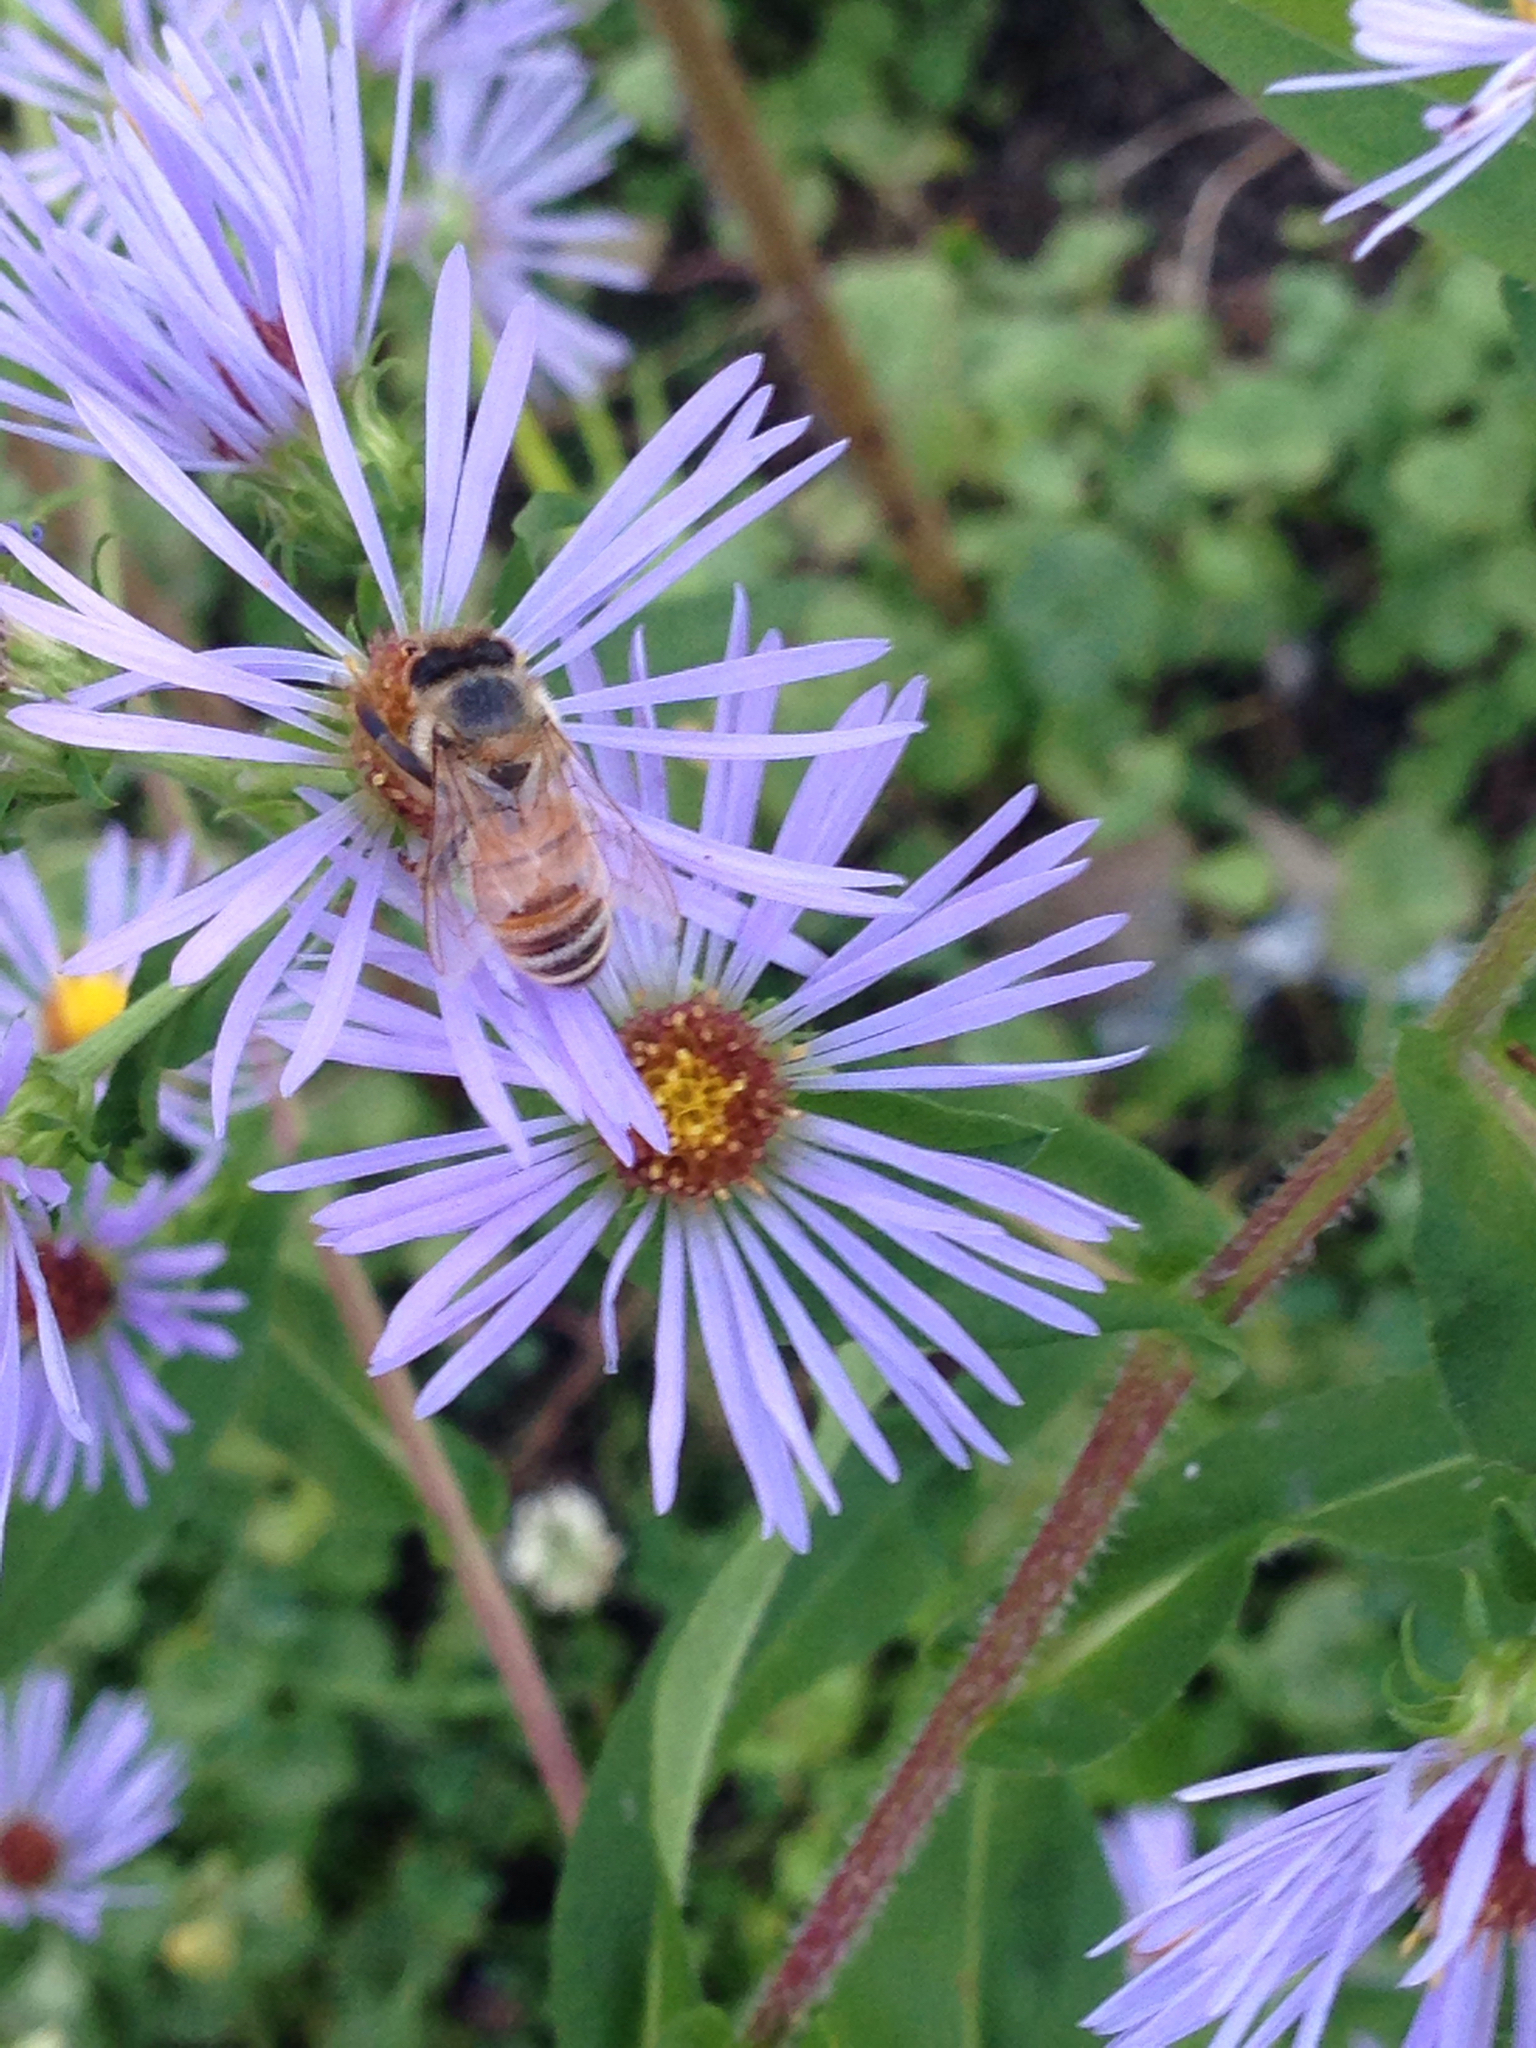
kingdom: Animalia
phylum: Arthropoda
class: Insecta
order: Hymenoptera
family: Apidae
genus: Apis
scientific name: Apis mellifera
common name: Honey bee
